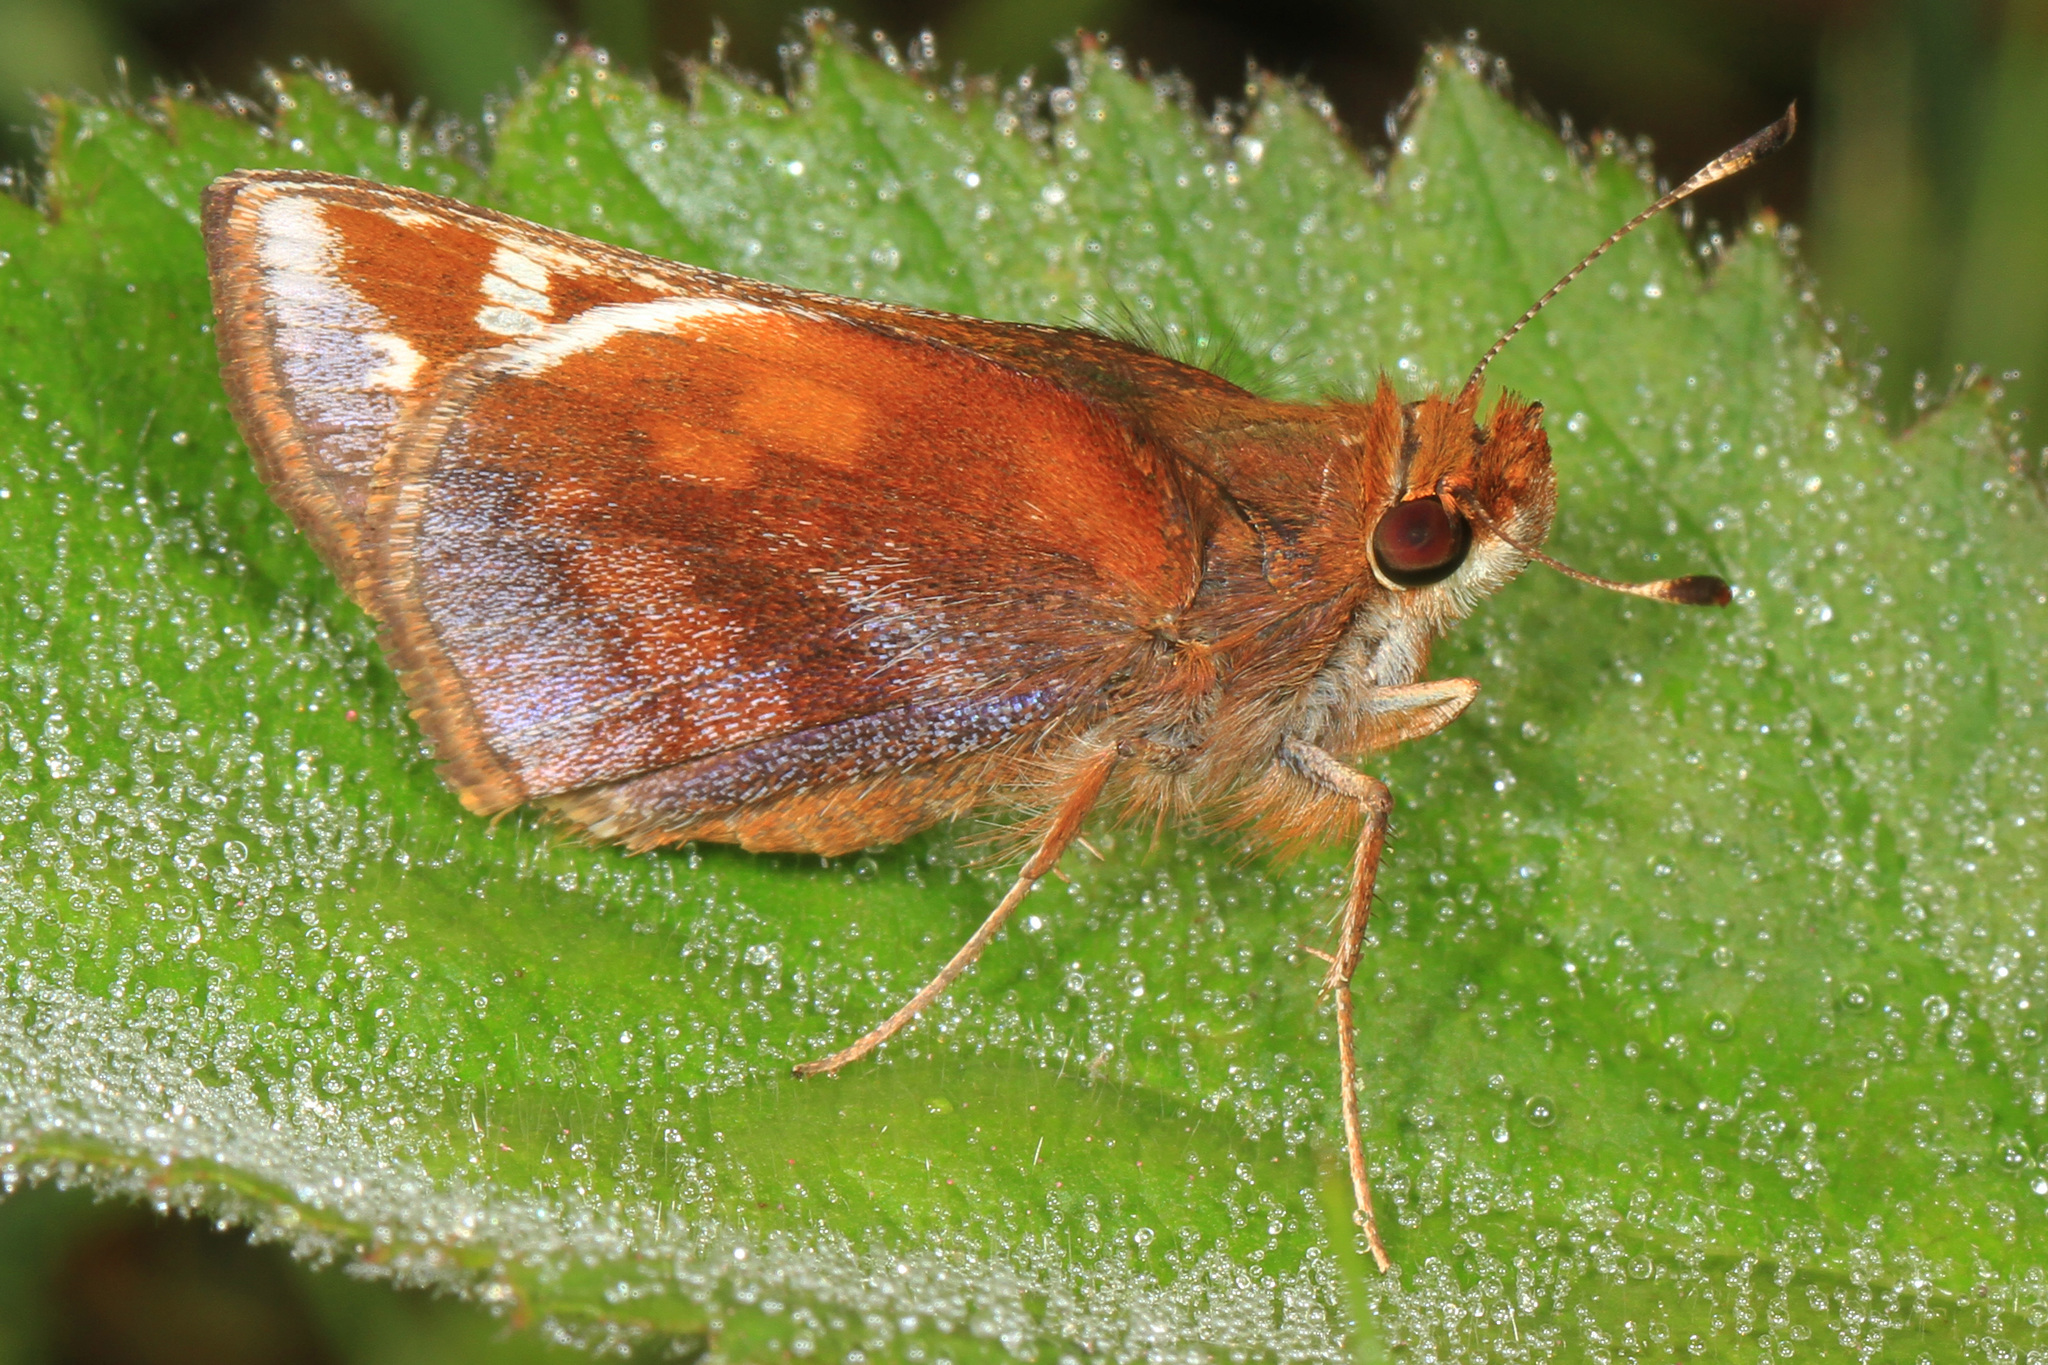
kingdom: Animalia
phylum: Arthropoda
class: Insecta
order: Lepidoptera
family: Hesperiidae
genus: Lon
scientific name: Lon zabulon
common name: Zabulon skipper
